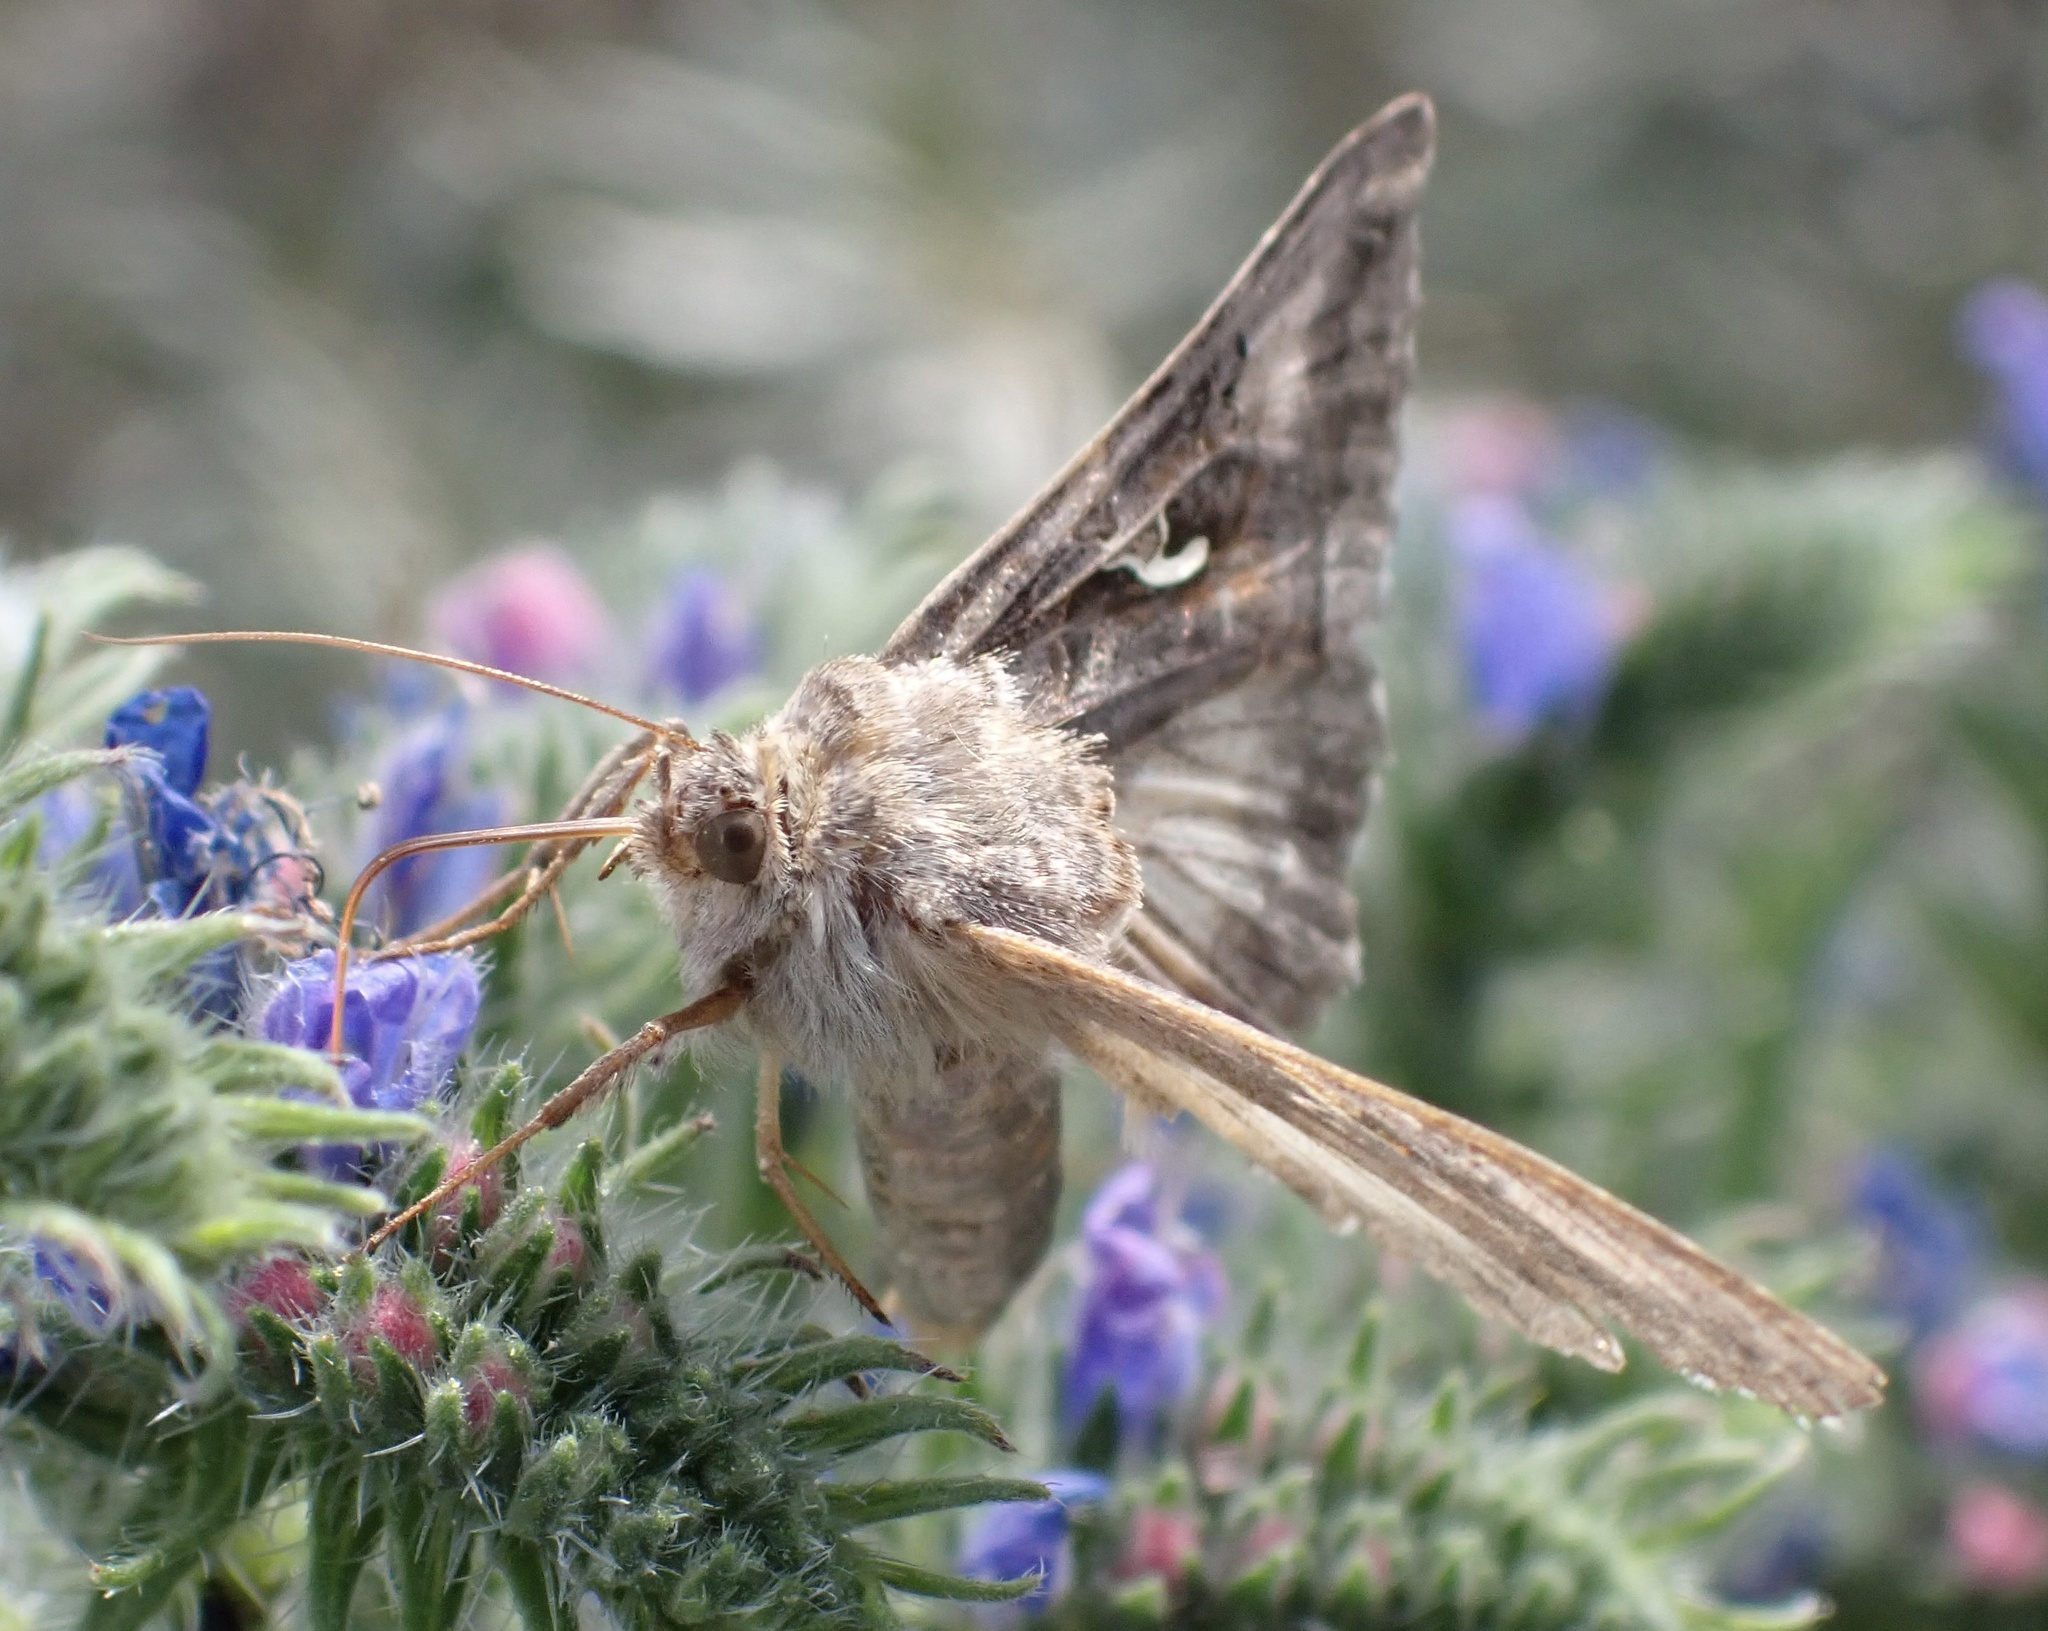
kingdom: Animalia
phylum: Arthropoda
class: Insecta
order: Lepidoptera
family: Noctuidae
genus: Autographa
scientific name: Autographa gamma
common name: Silver y
